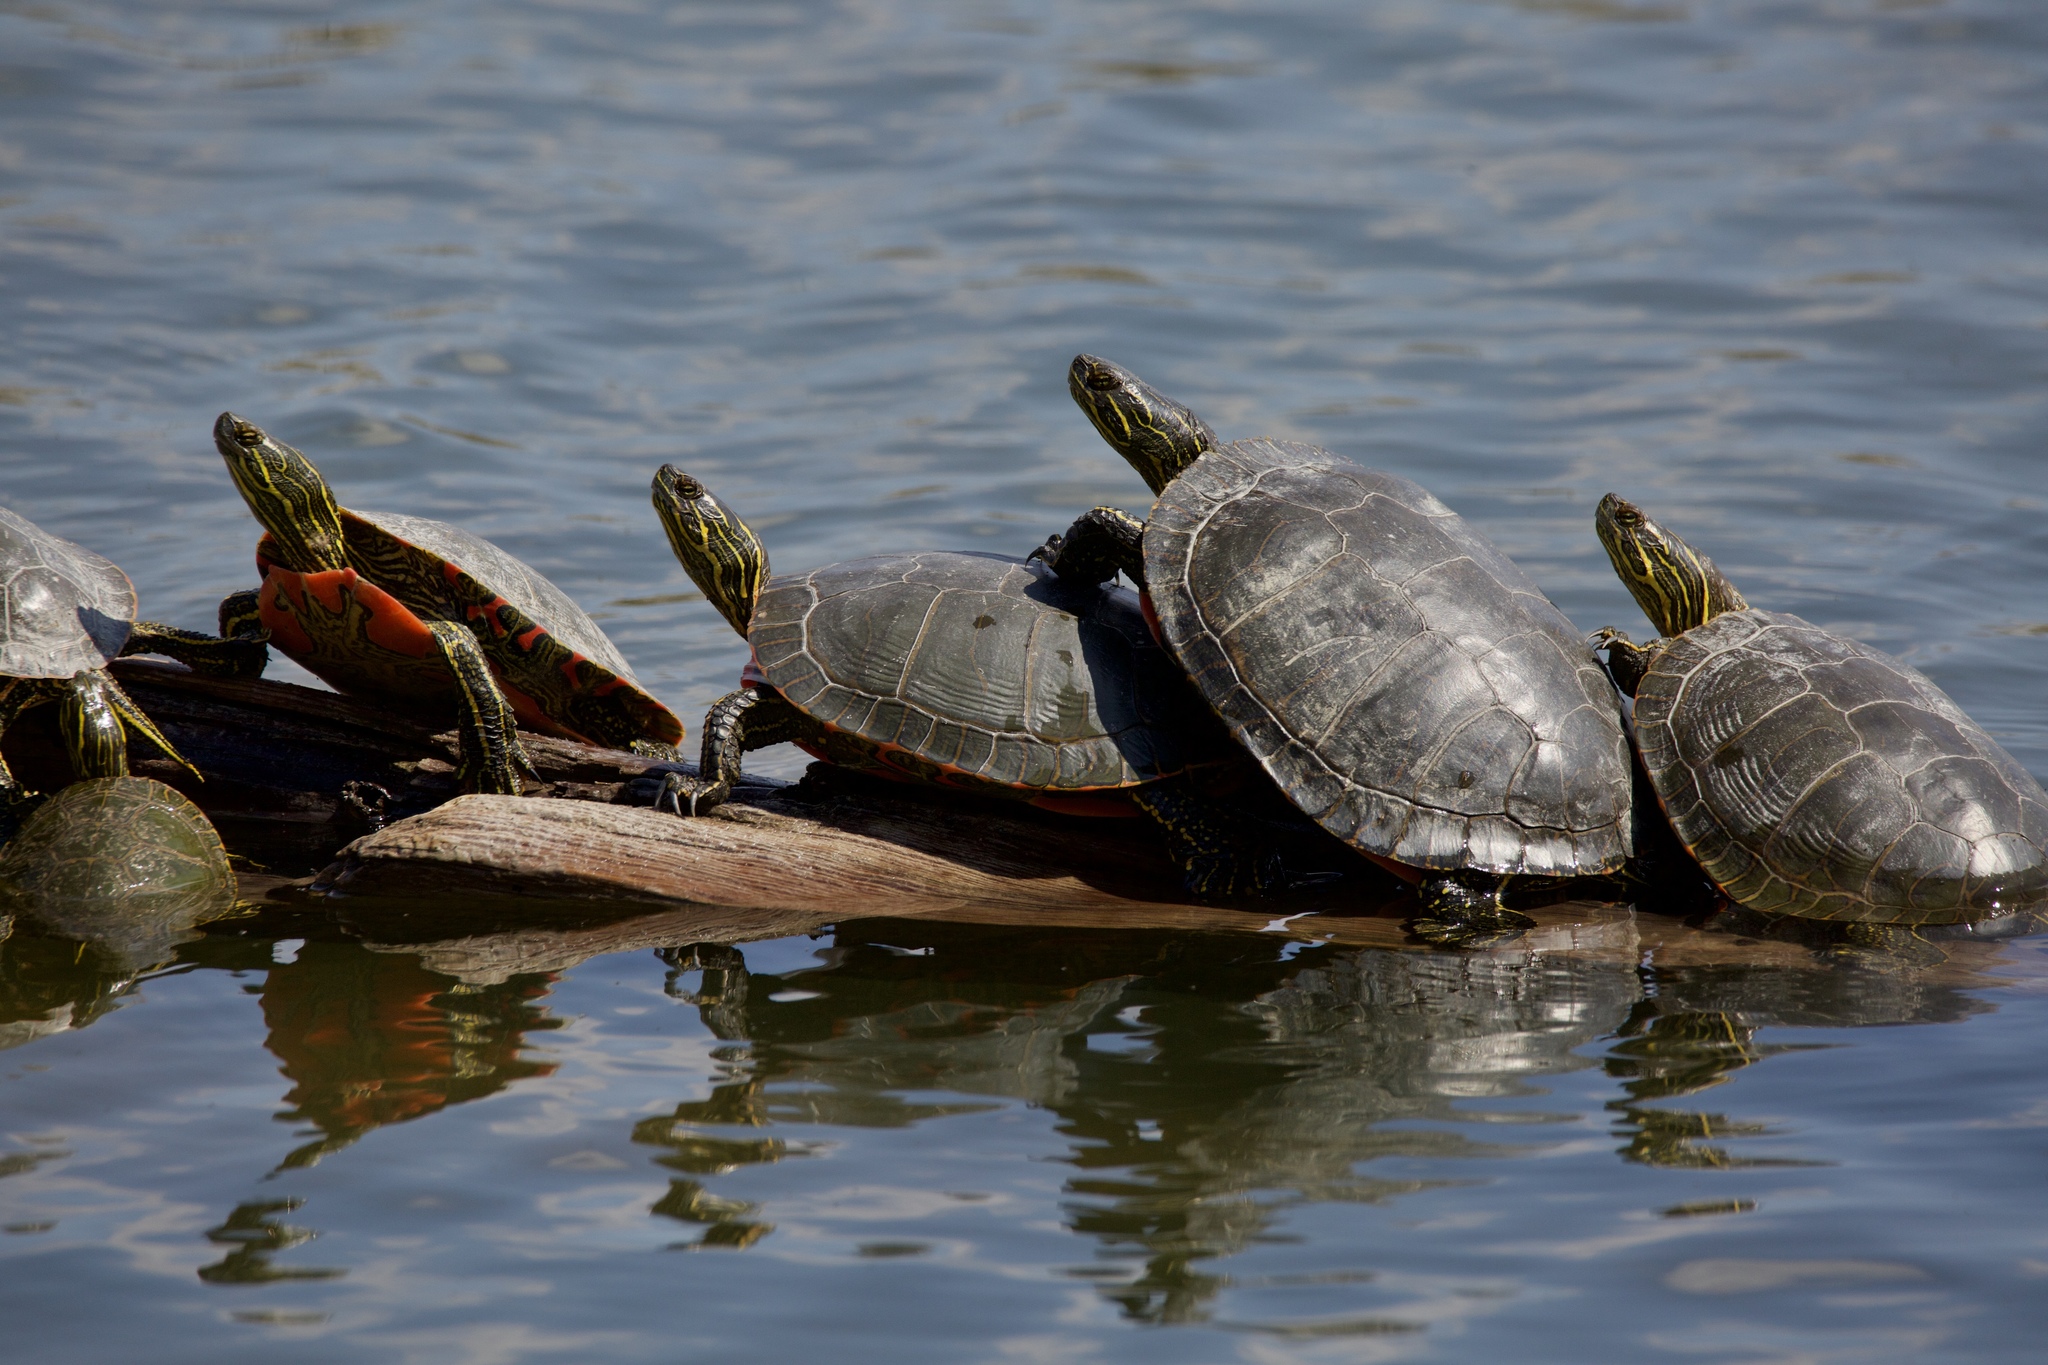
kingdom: Animalia
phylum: Chordata
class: Testudines
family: Emydidae
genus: Chrysemys
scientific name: Chrysemys picta
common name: Painted turtle
